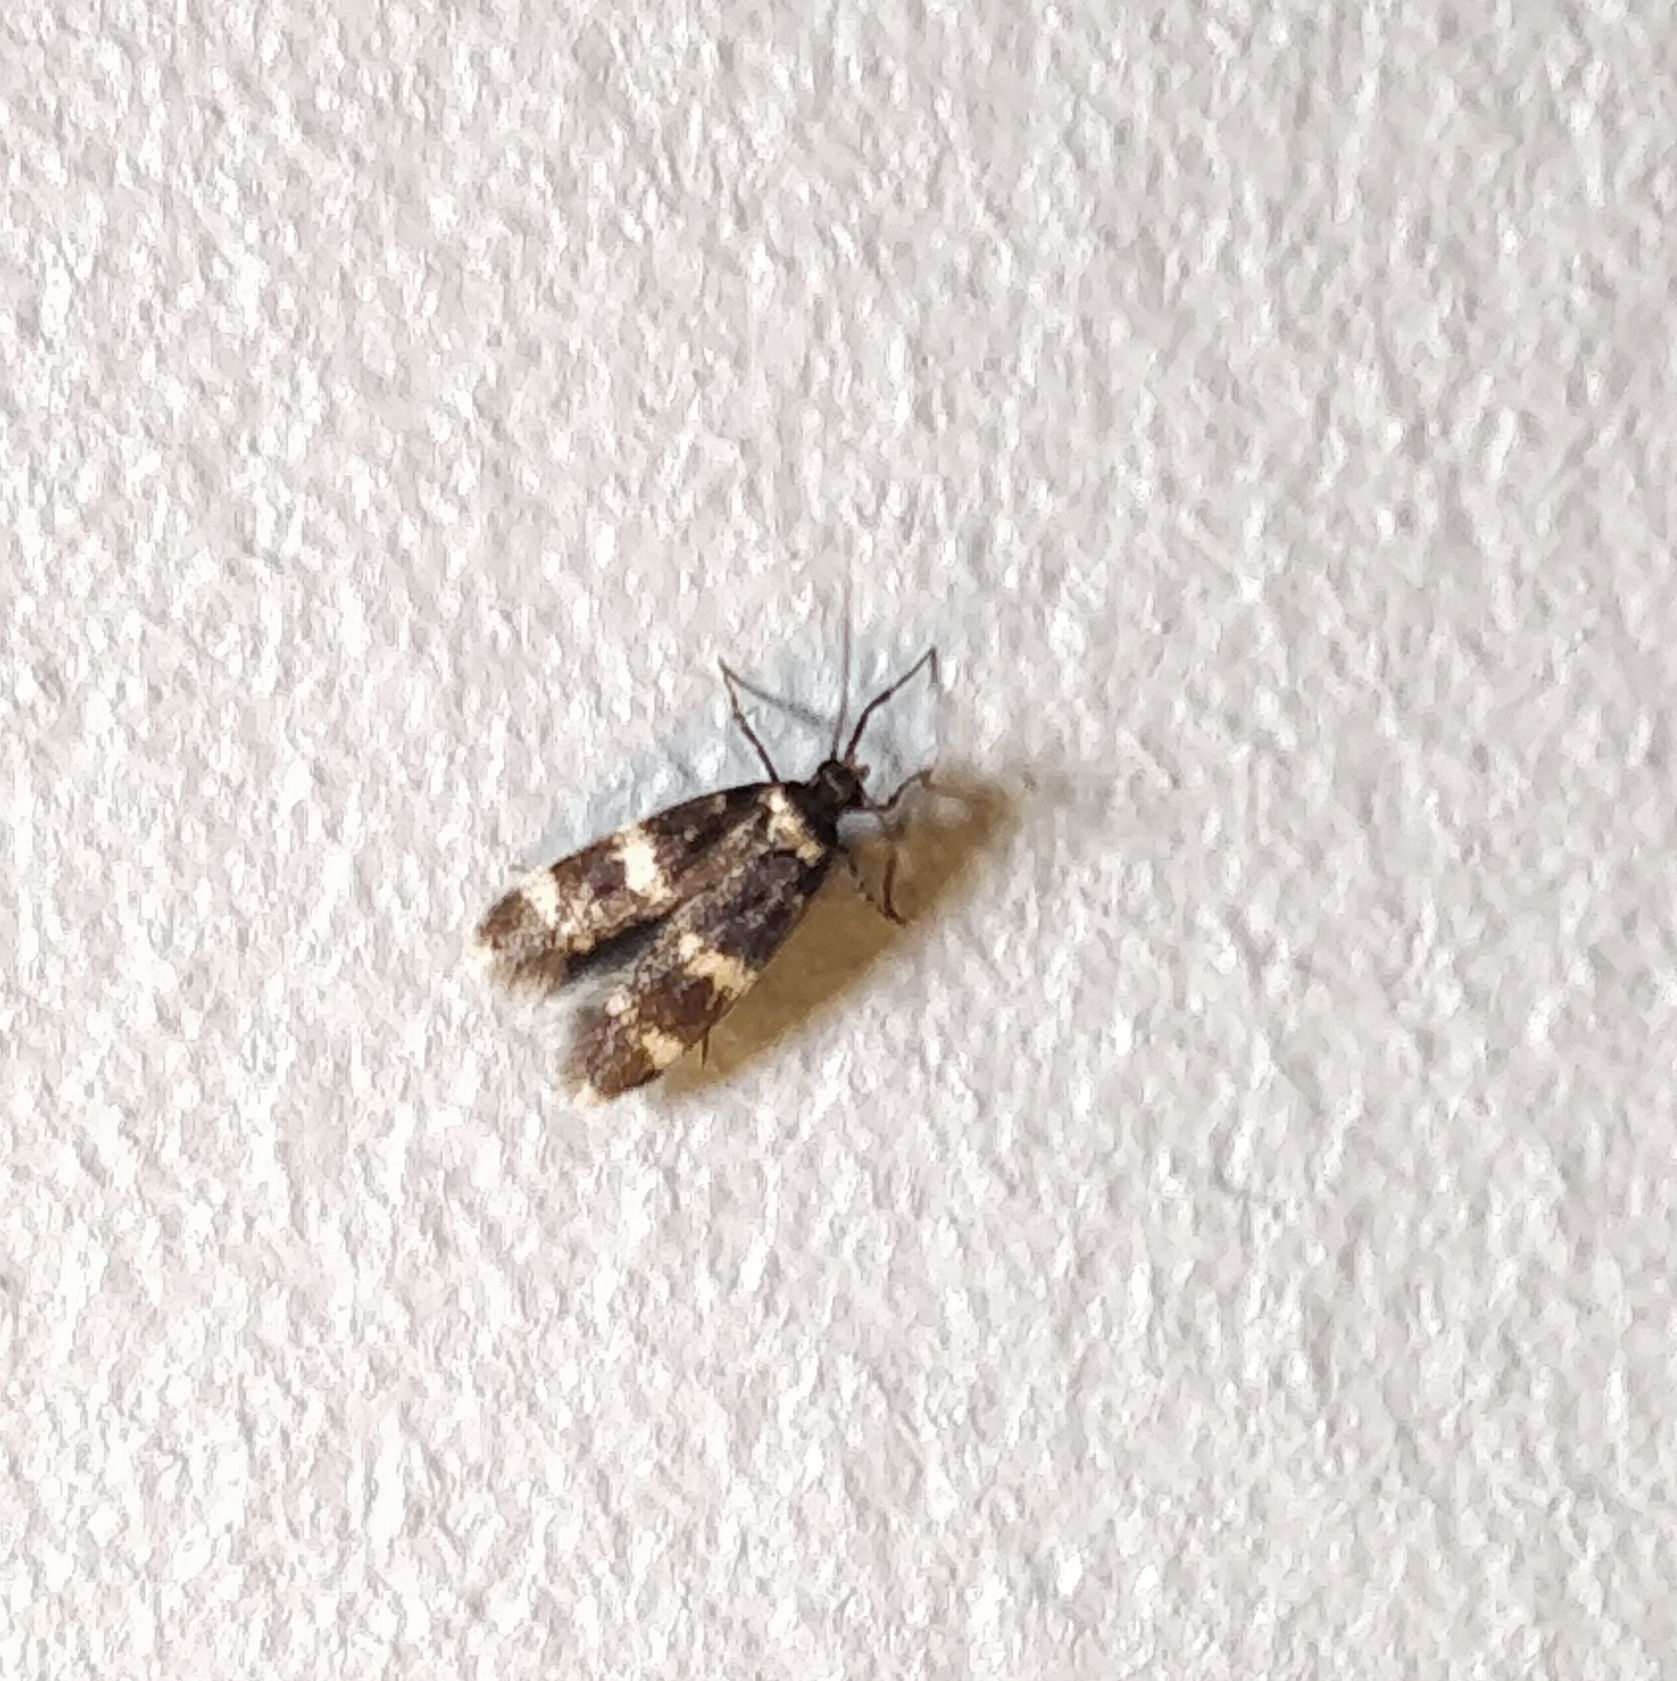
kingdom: Animalia
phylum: Arthropoda
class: Insecta
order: Lepidoptera
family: Autostichidae
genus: Oegoconia
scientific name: Oegoconia quadripuncta
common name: Four-spotted obscure
